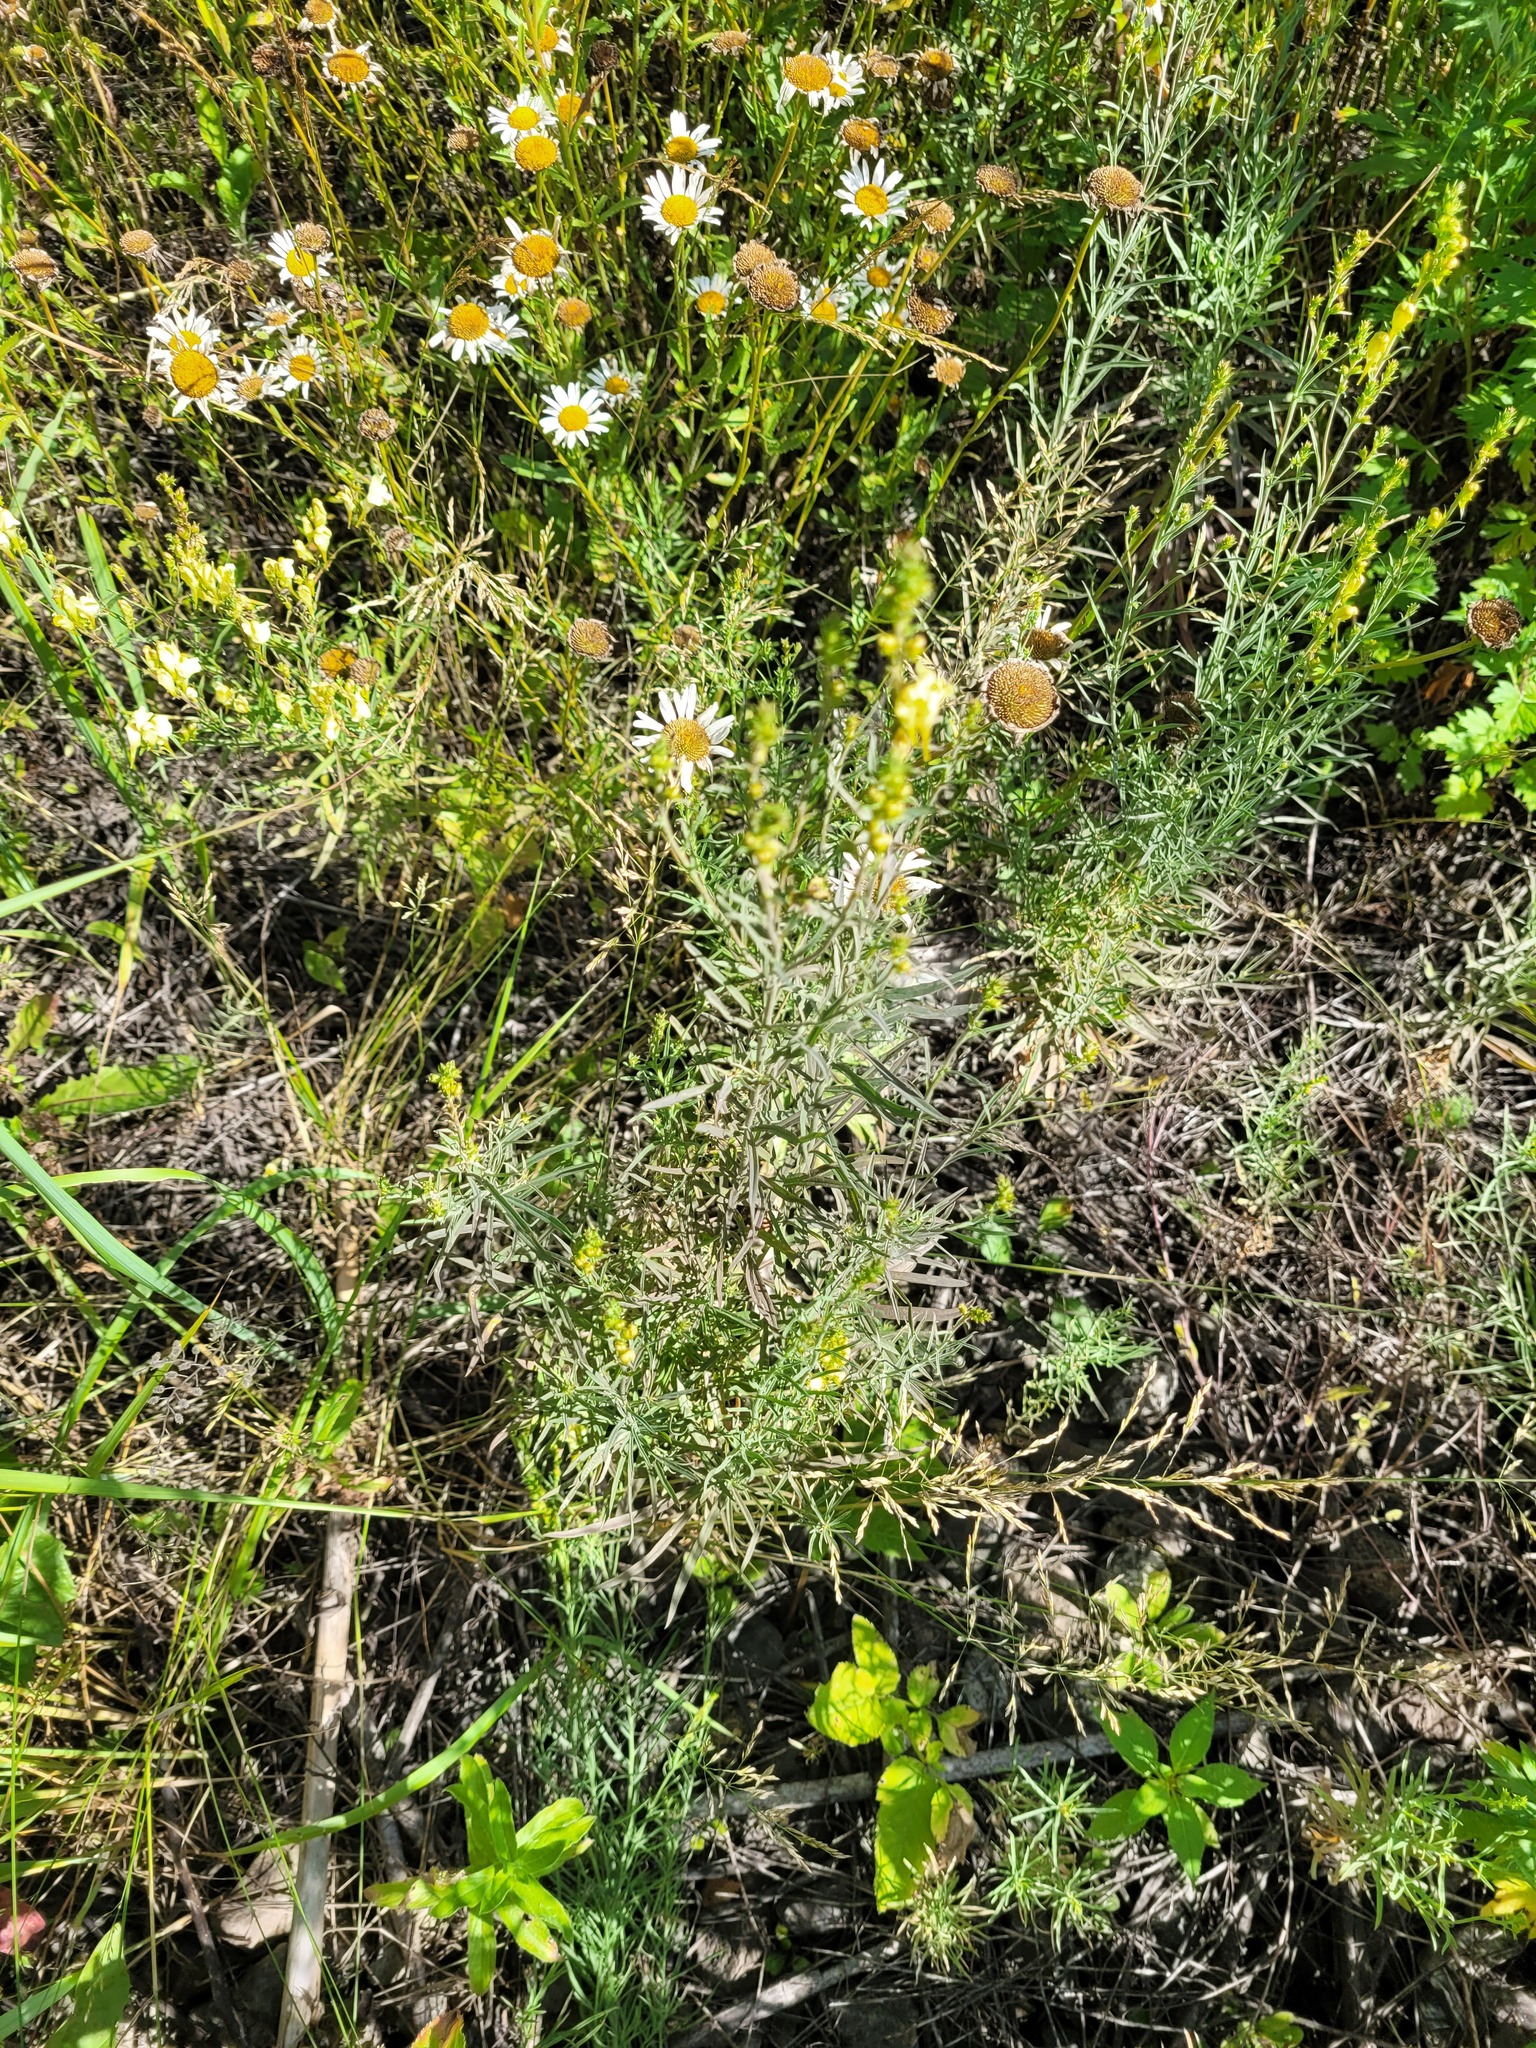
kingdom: Plantae
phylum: Tracheophyta
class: Magnoliopsida
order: Lamiales
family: Plantaginaceae
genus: Linaria
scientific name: Linaria vulgaris
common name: Butter and eggs
